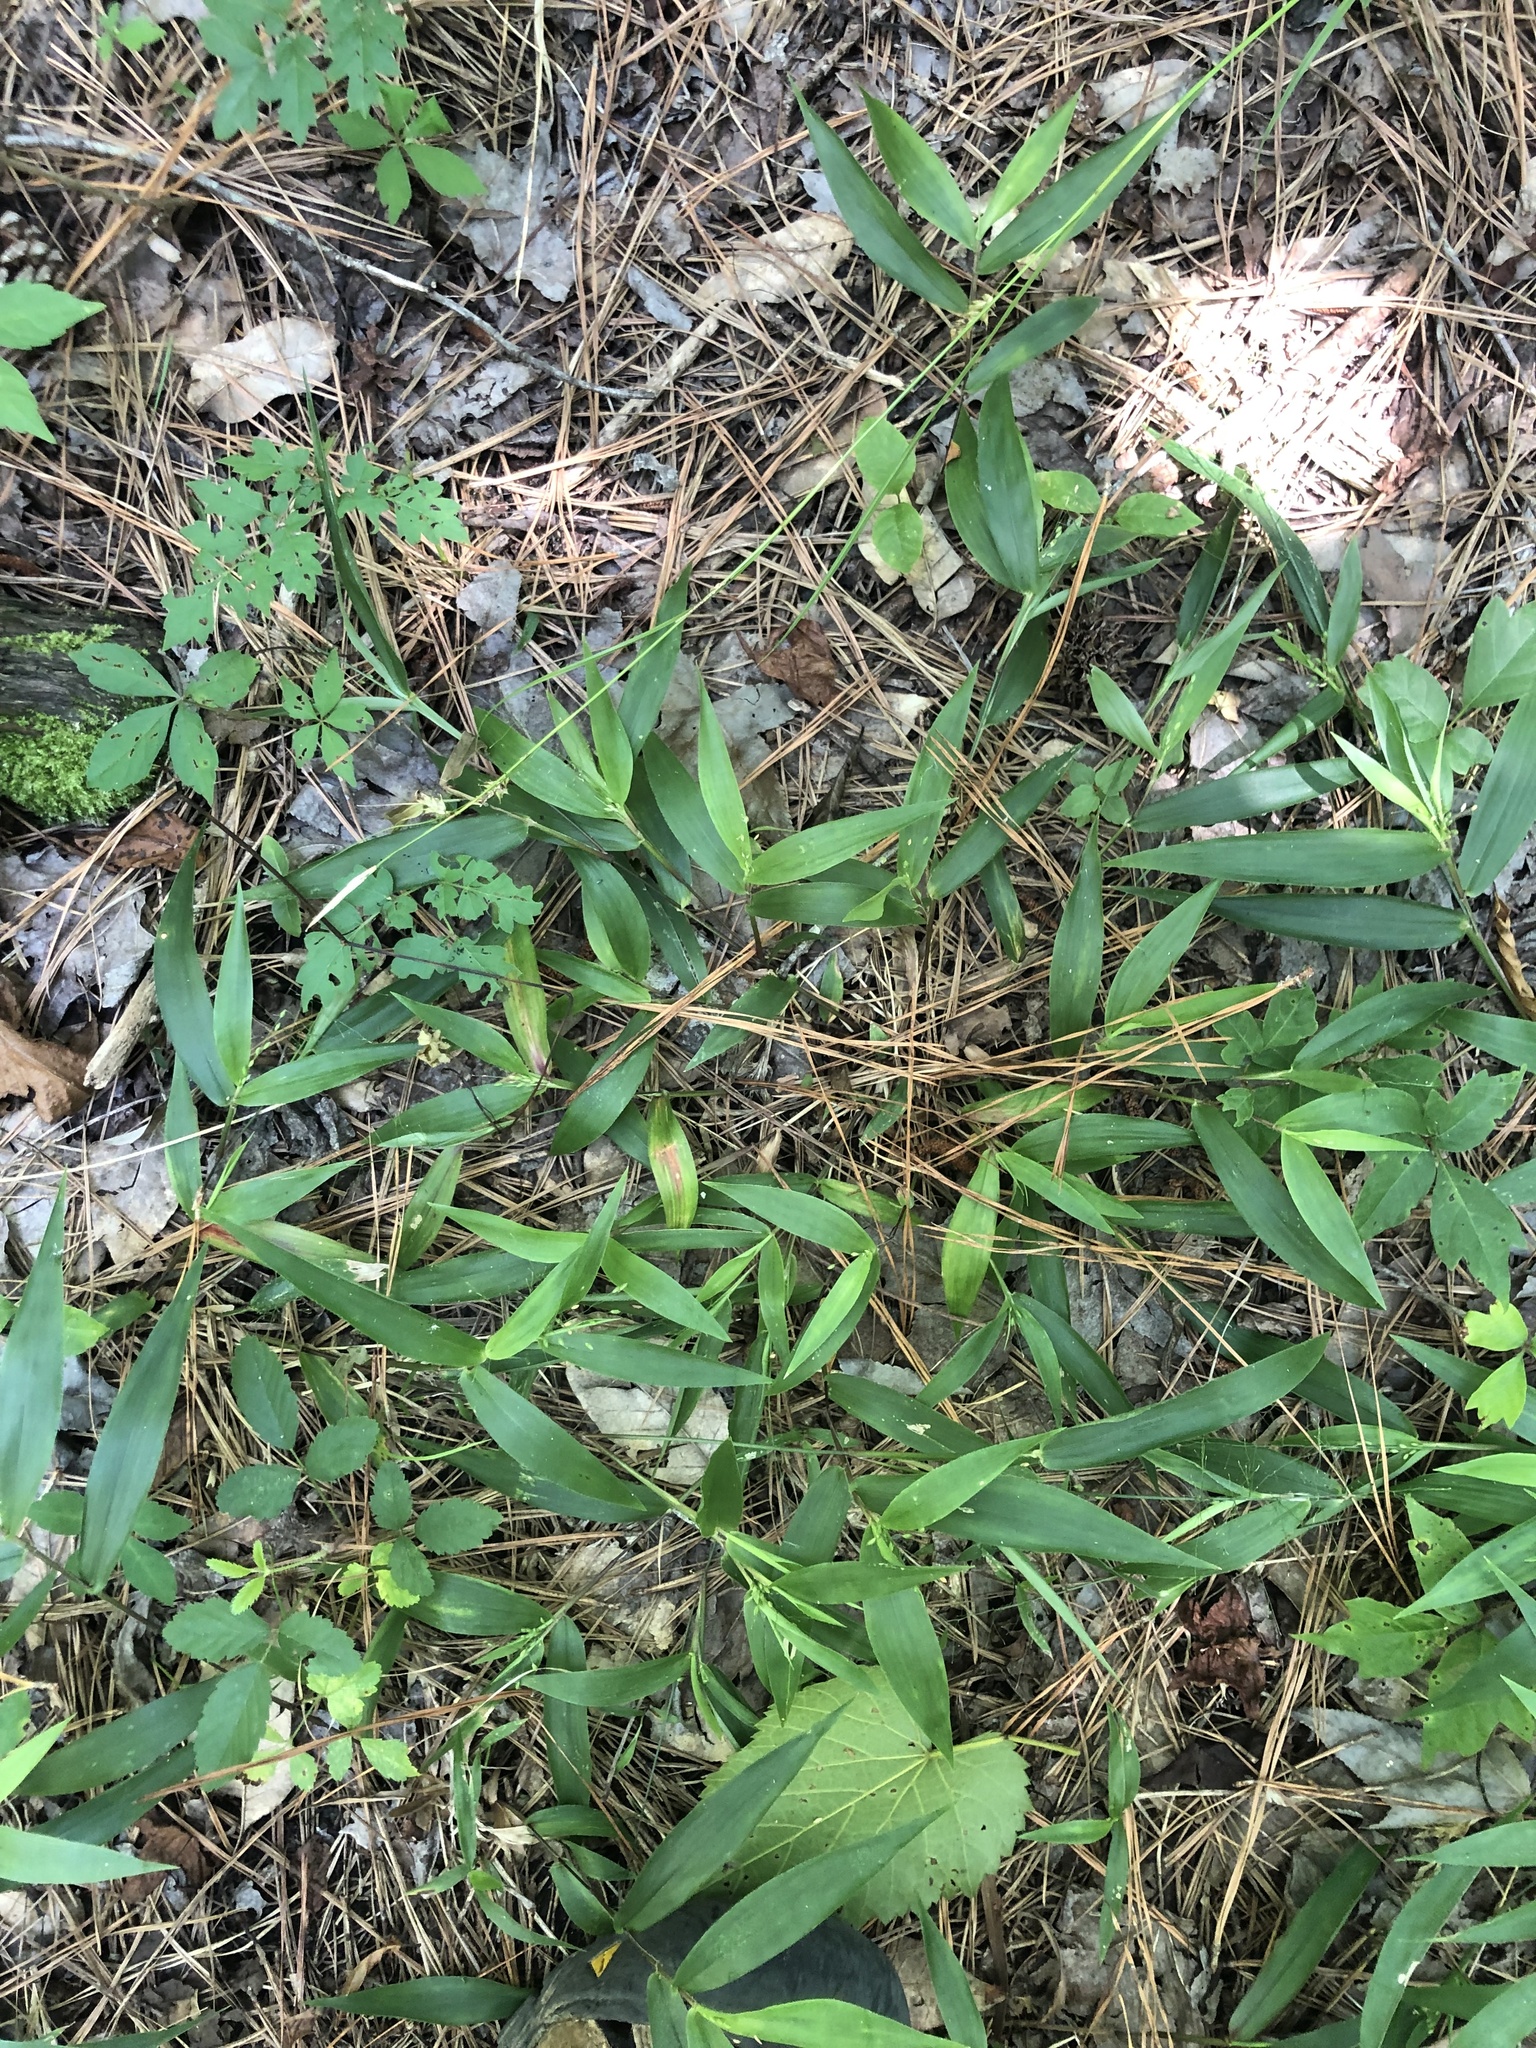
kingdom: Plantae
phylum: Tracheophyta
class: Liliopsida
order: Poales
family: Poaceae
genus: Dichanthelium
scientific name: Dichanthelium commutatum
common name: Variable witchgrass
